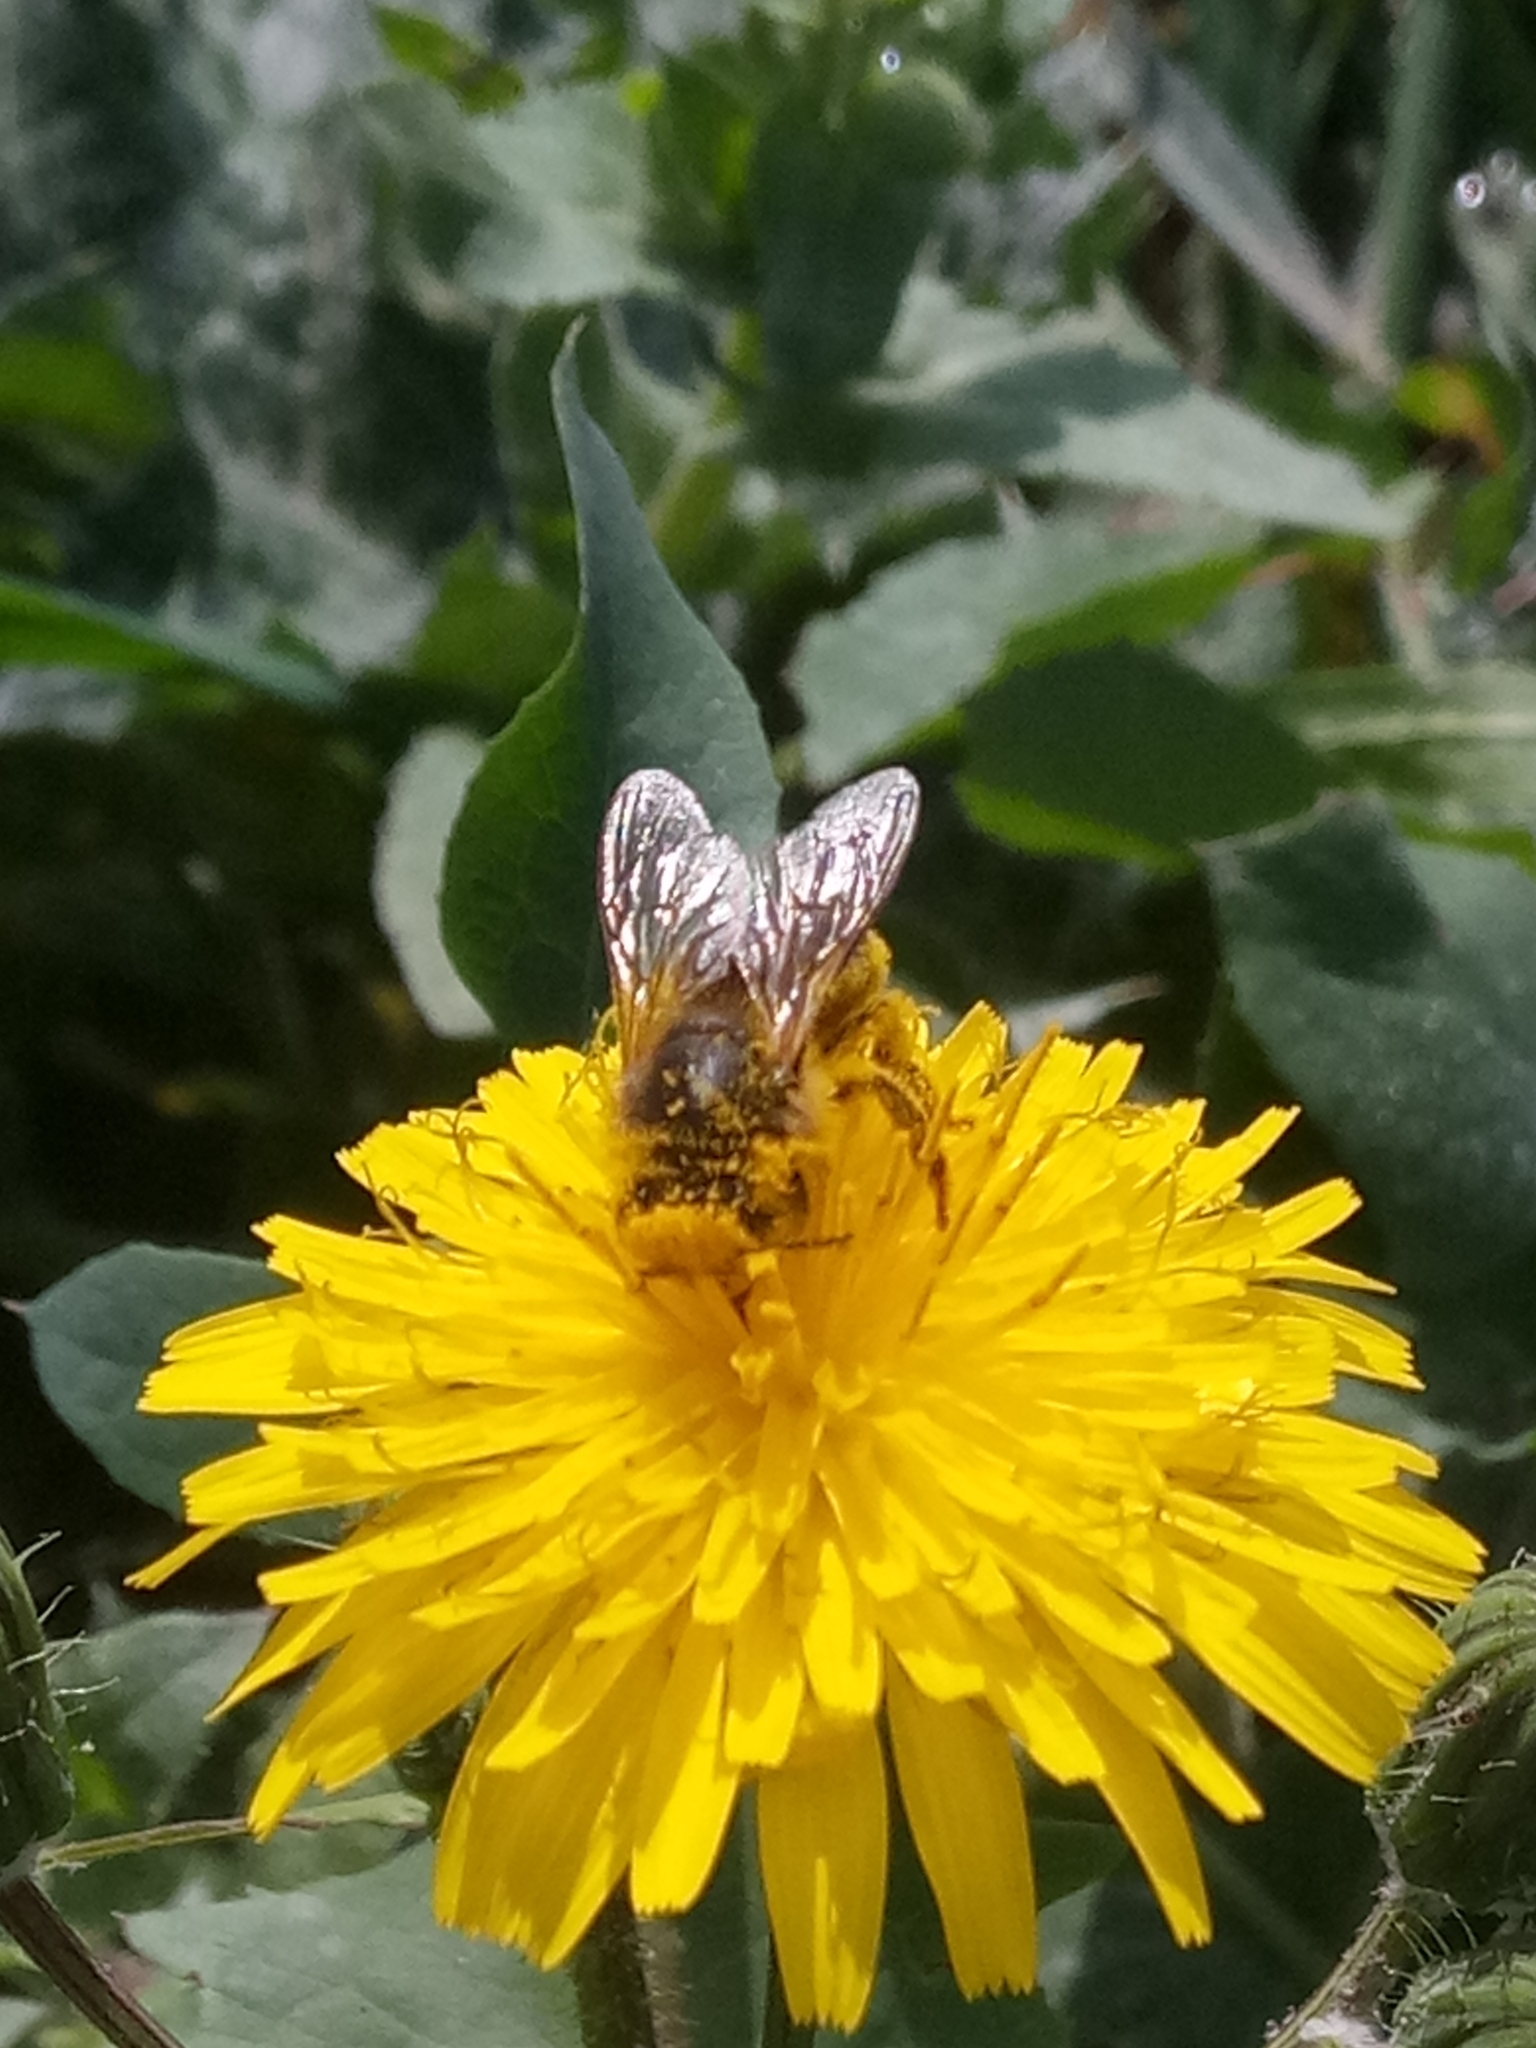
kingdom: Animalia
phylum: Arthropoda
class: Insecta
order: Hymenoptera
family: Apidae
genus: Apis
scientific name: Apis mellifera
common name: Honey bee
